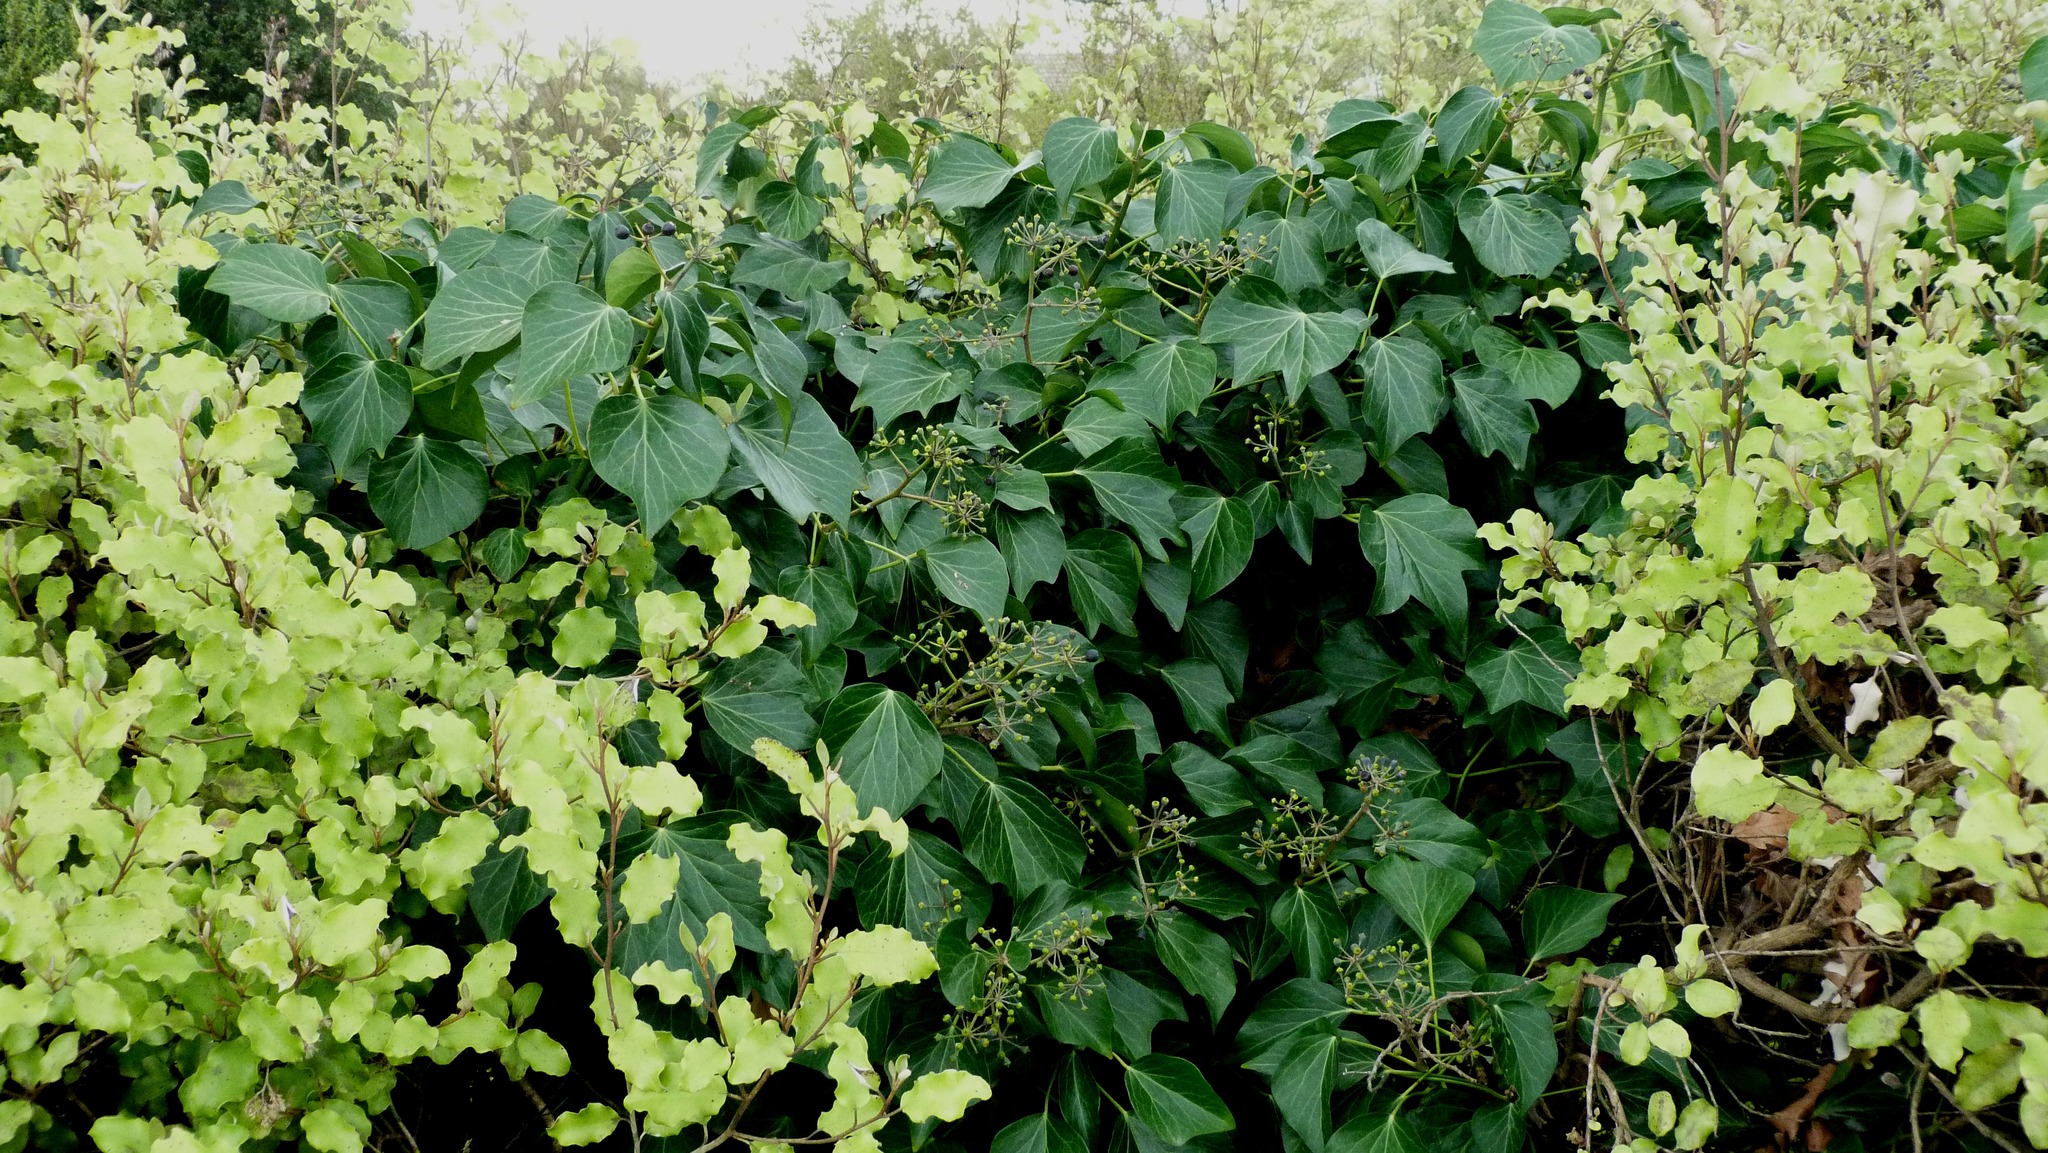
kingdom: Plantae
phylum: Tracheophyta
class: Magnoliopsida
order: Apiales
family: Araliaceae
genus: Hedera
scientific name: Hedera helix
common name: Ivy
